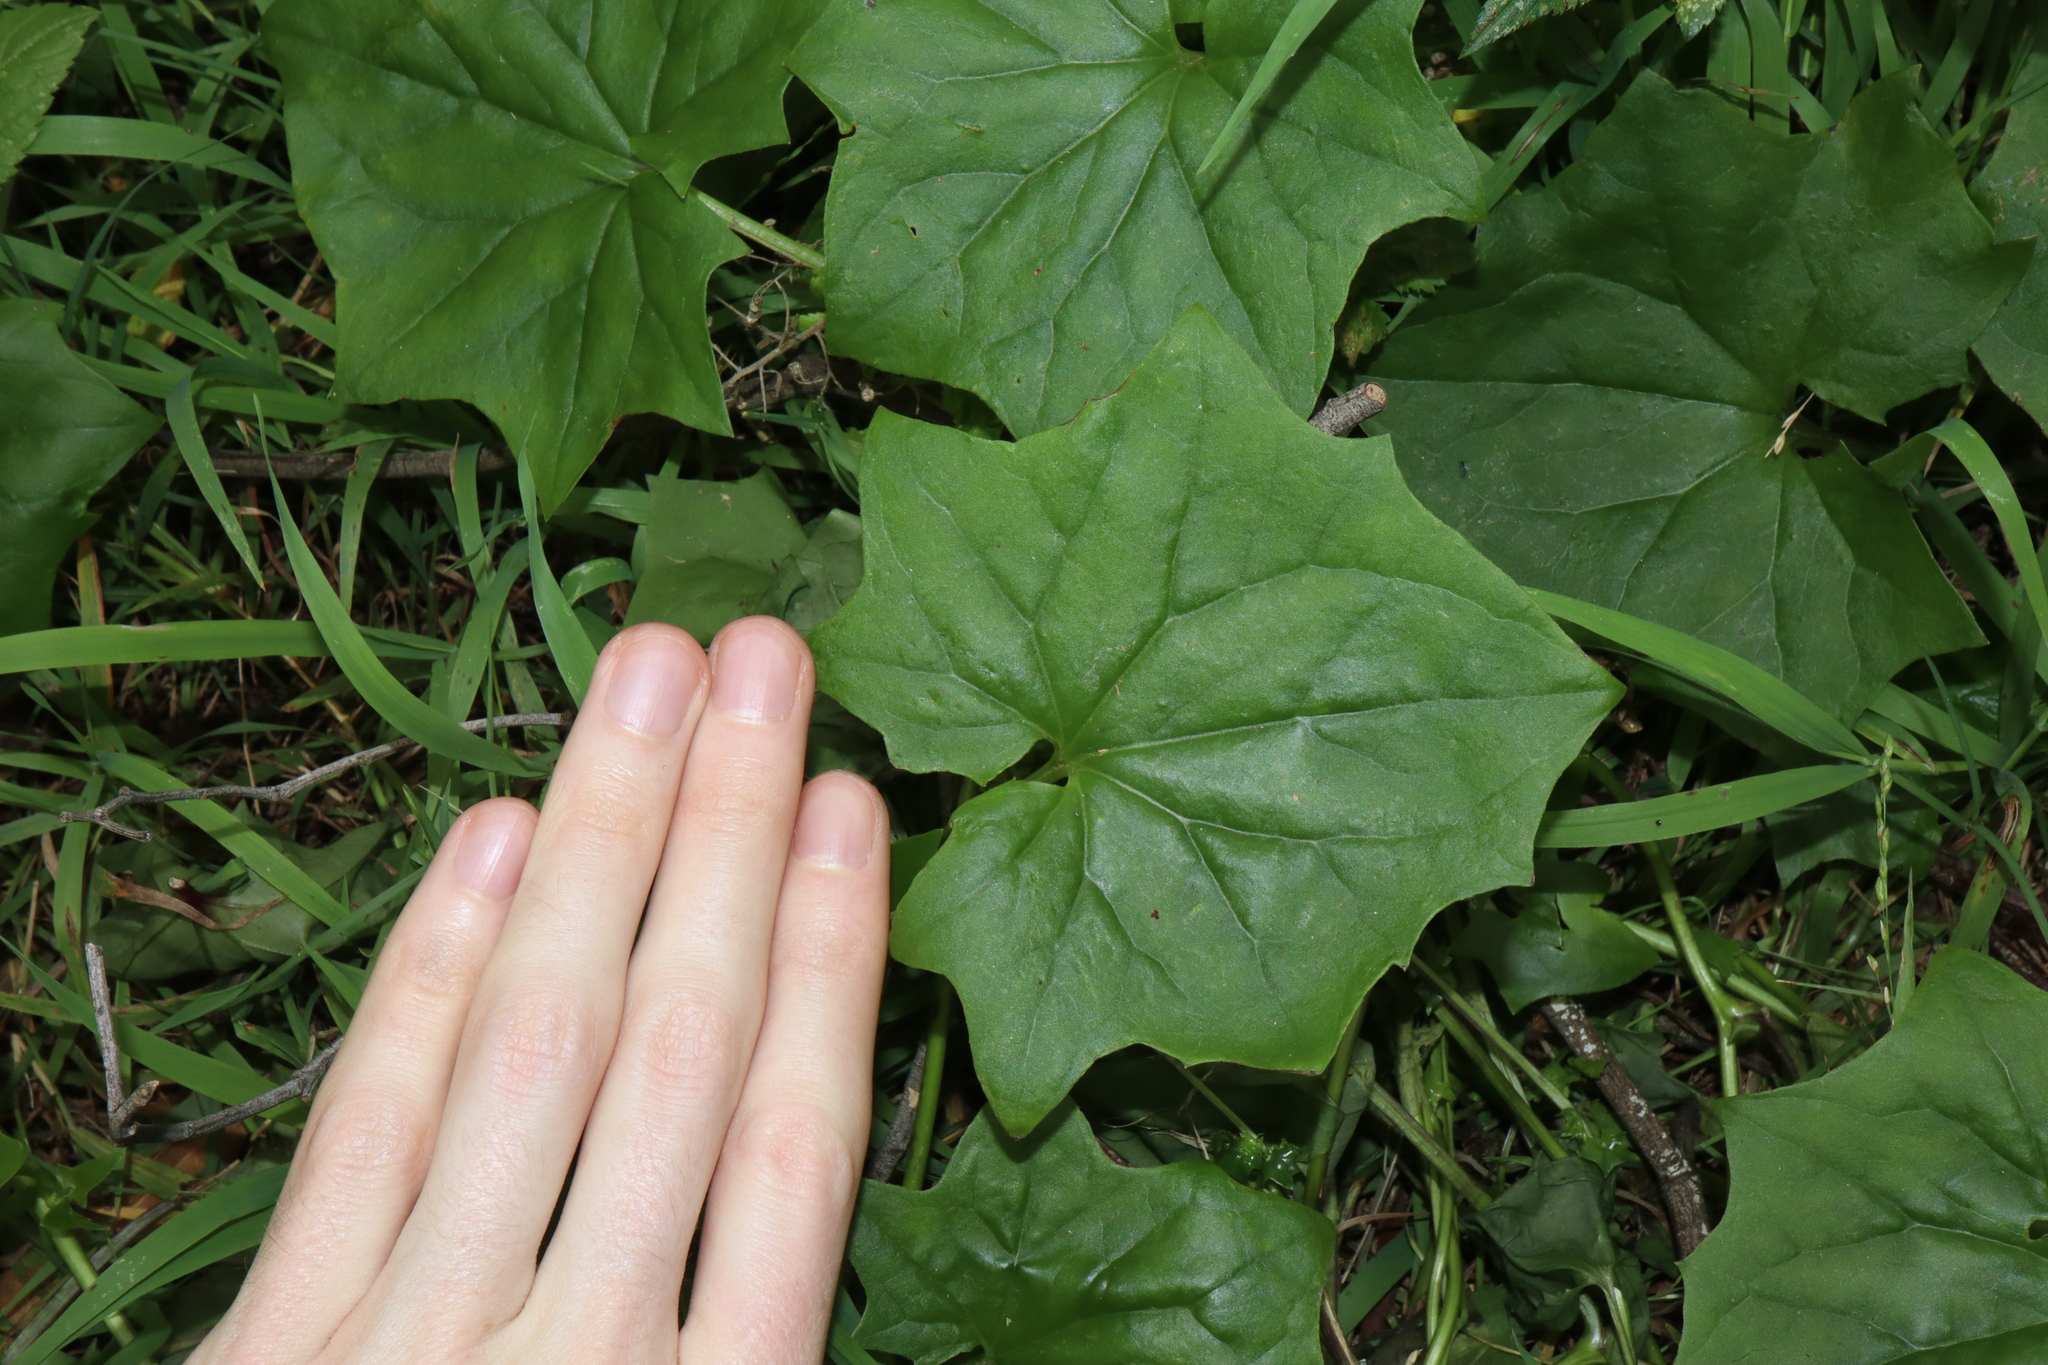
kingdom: Plantae
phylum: Tracheophyta
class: Magnoliopsida
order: Asterales
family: Asteraceae
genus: Delairea
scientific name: Delairea odorata
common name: Cape-ivy
